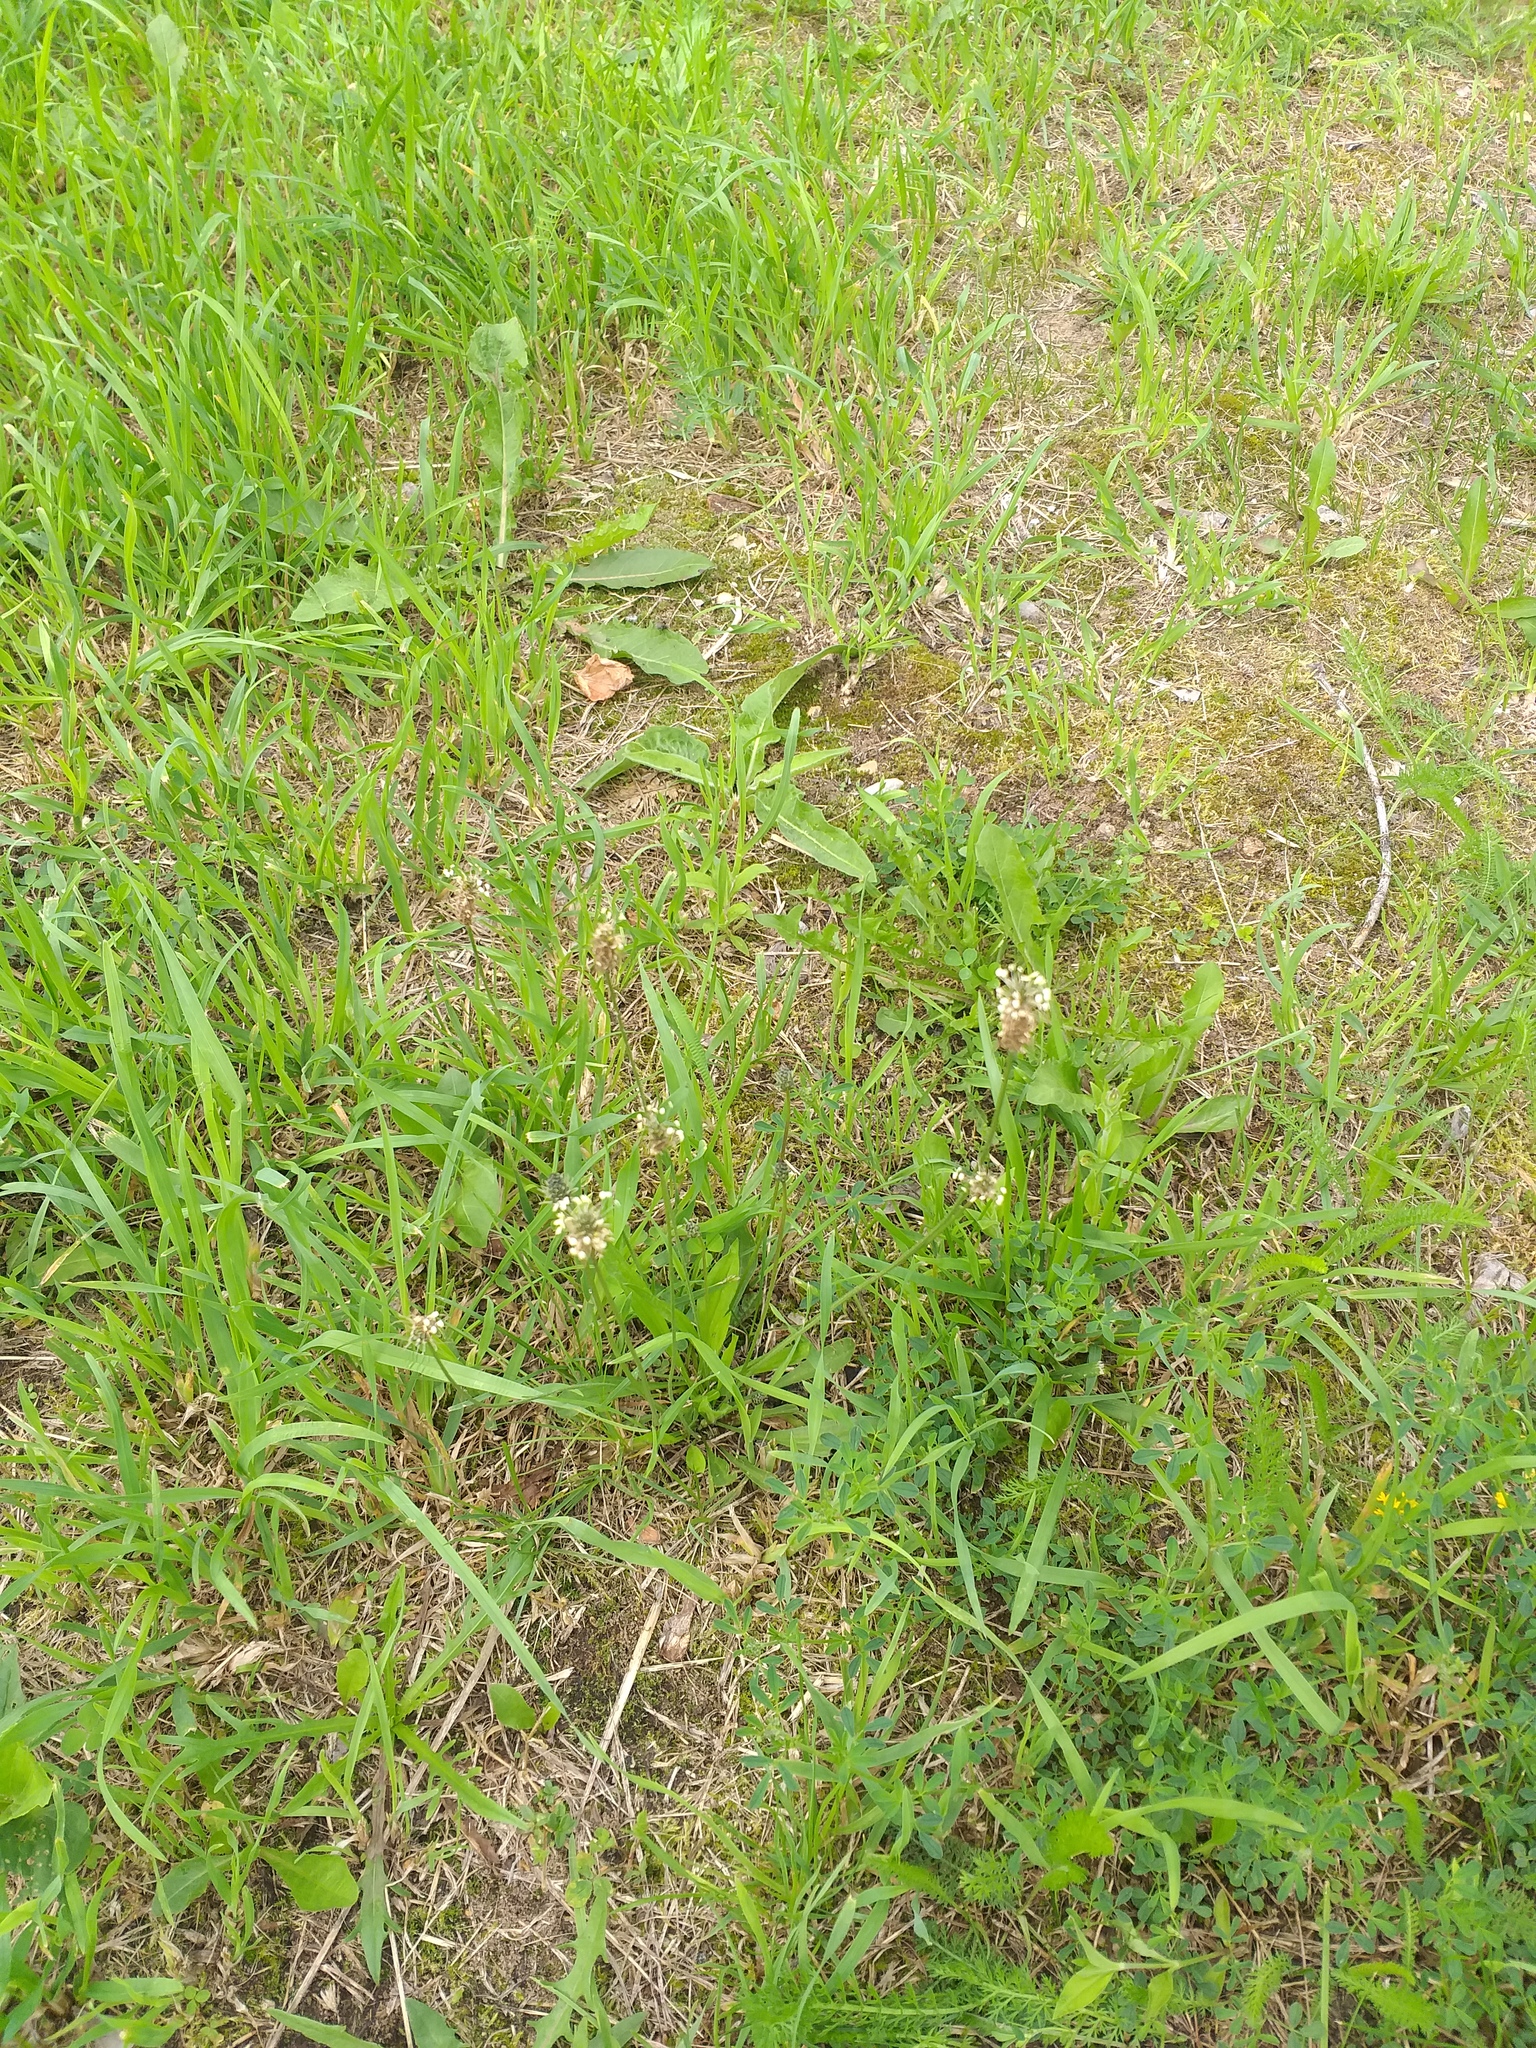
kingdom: Plantae
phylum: Tracheophyta
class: Magnoliopsida
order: Lamiales
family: Plantaginaceae
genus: Plantago
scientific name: Plantago lanceolata
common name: Ribwort plantain
